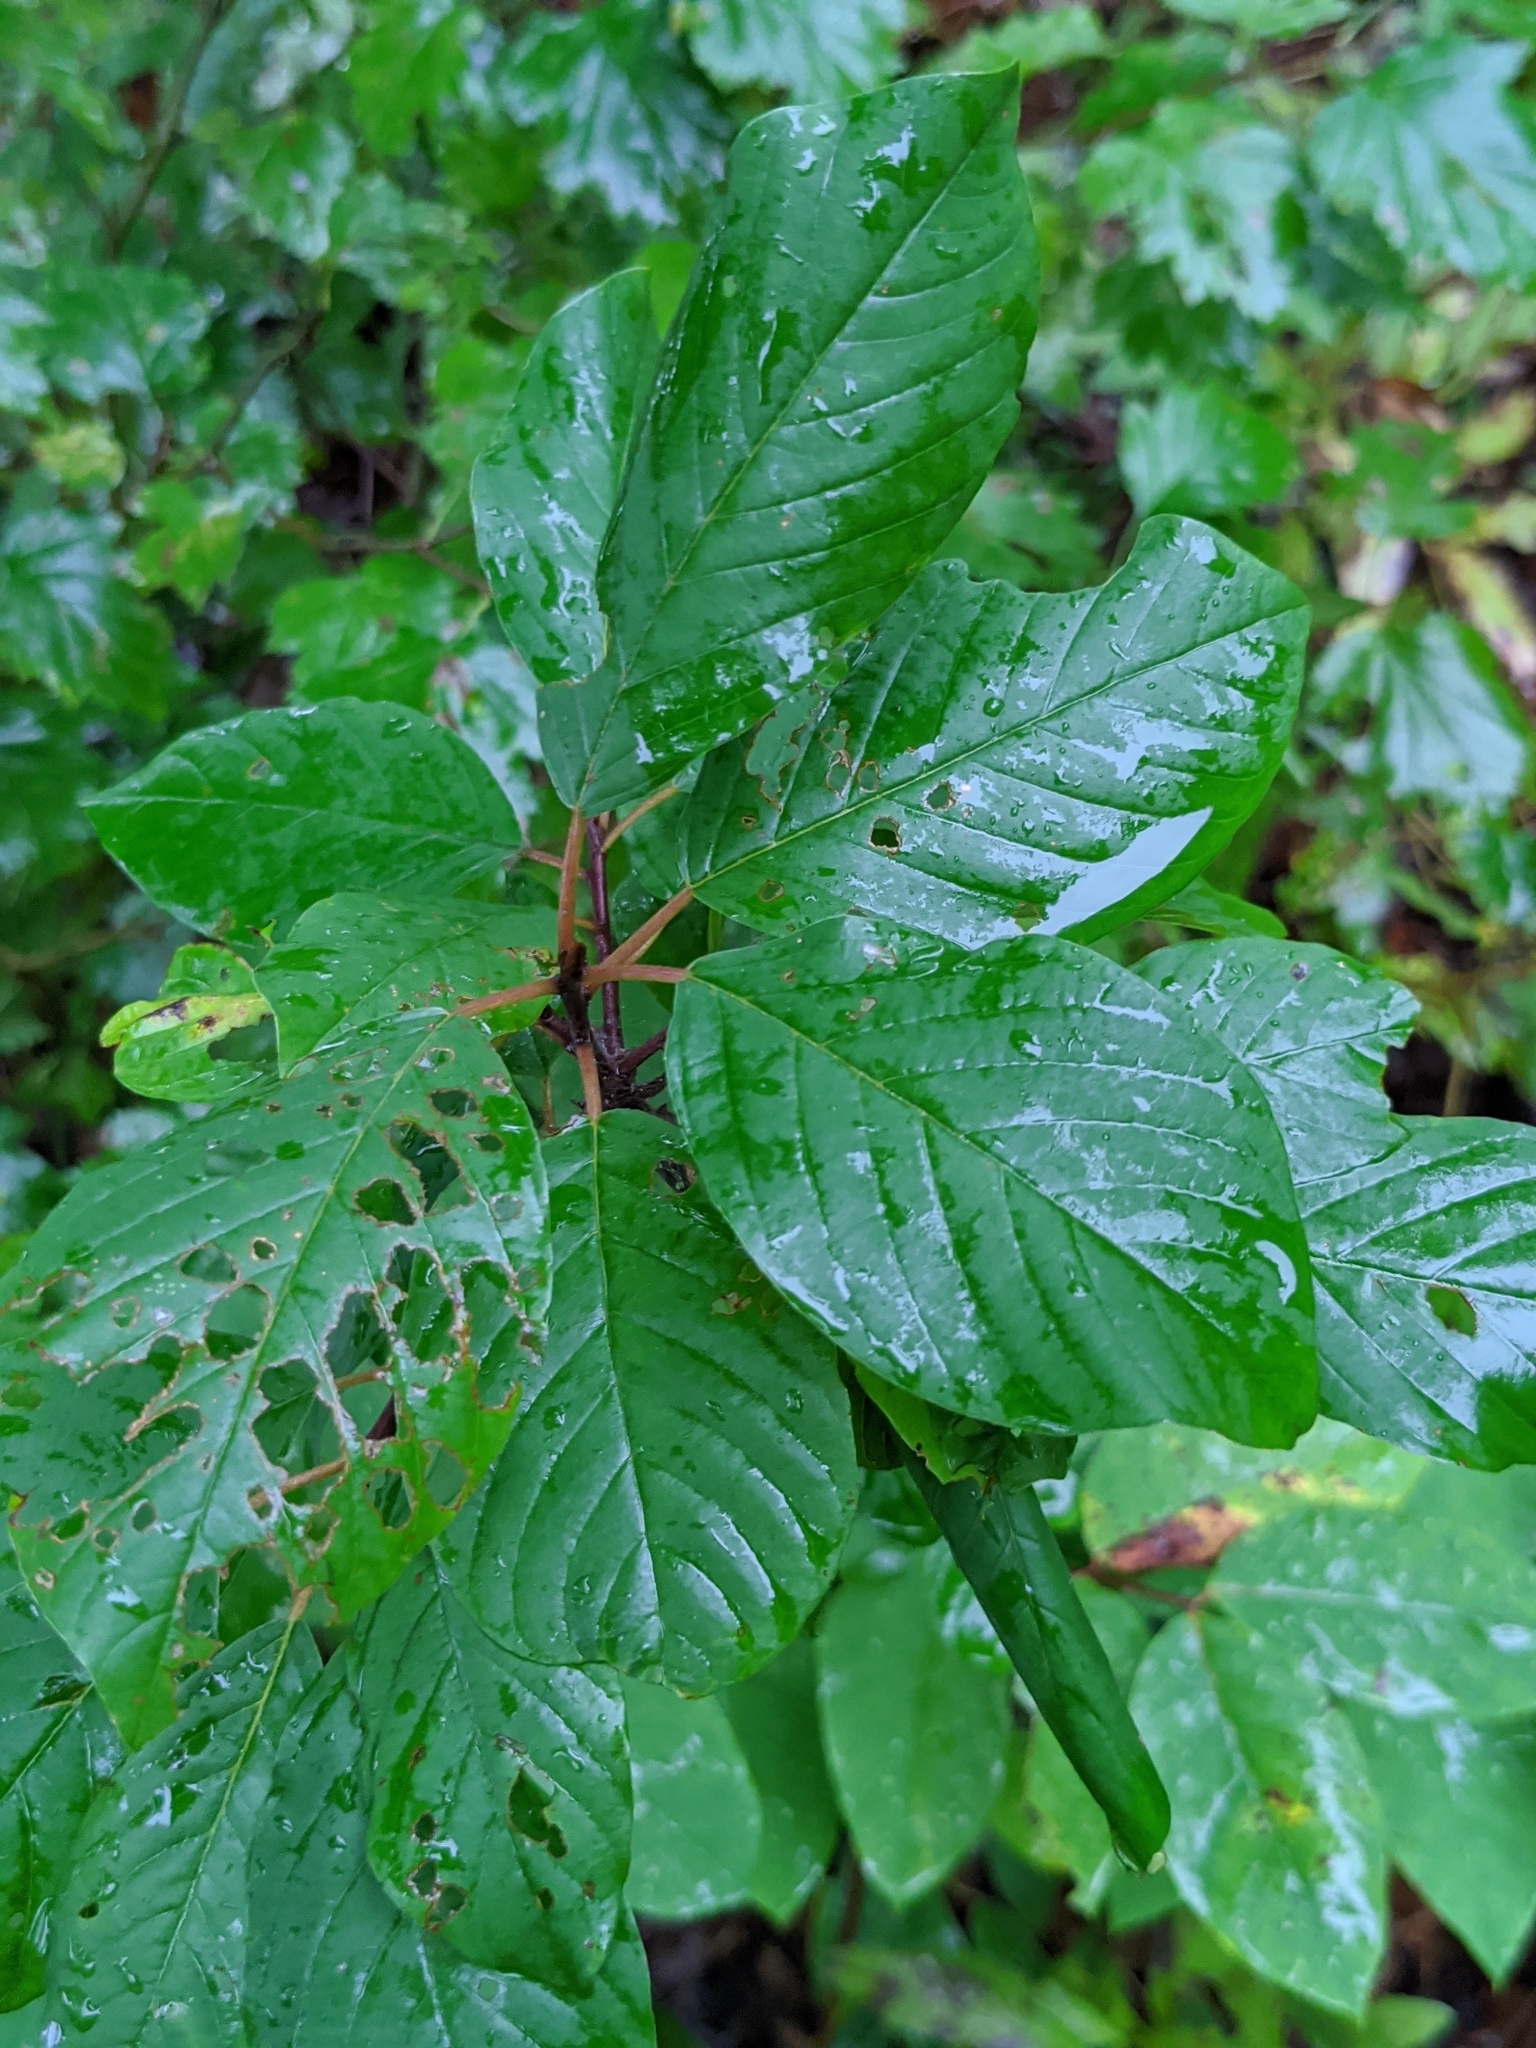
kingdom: Plantae
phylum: Tracheophyta
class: Magnoliopsida
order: Rosales
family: Rhamnaceae
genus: Frangula
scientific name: Frangula alnus
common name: Alder buckthorn
